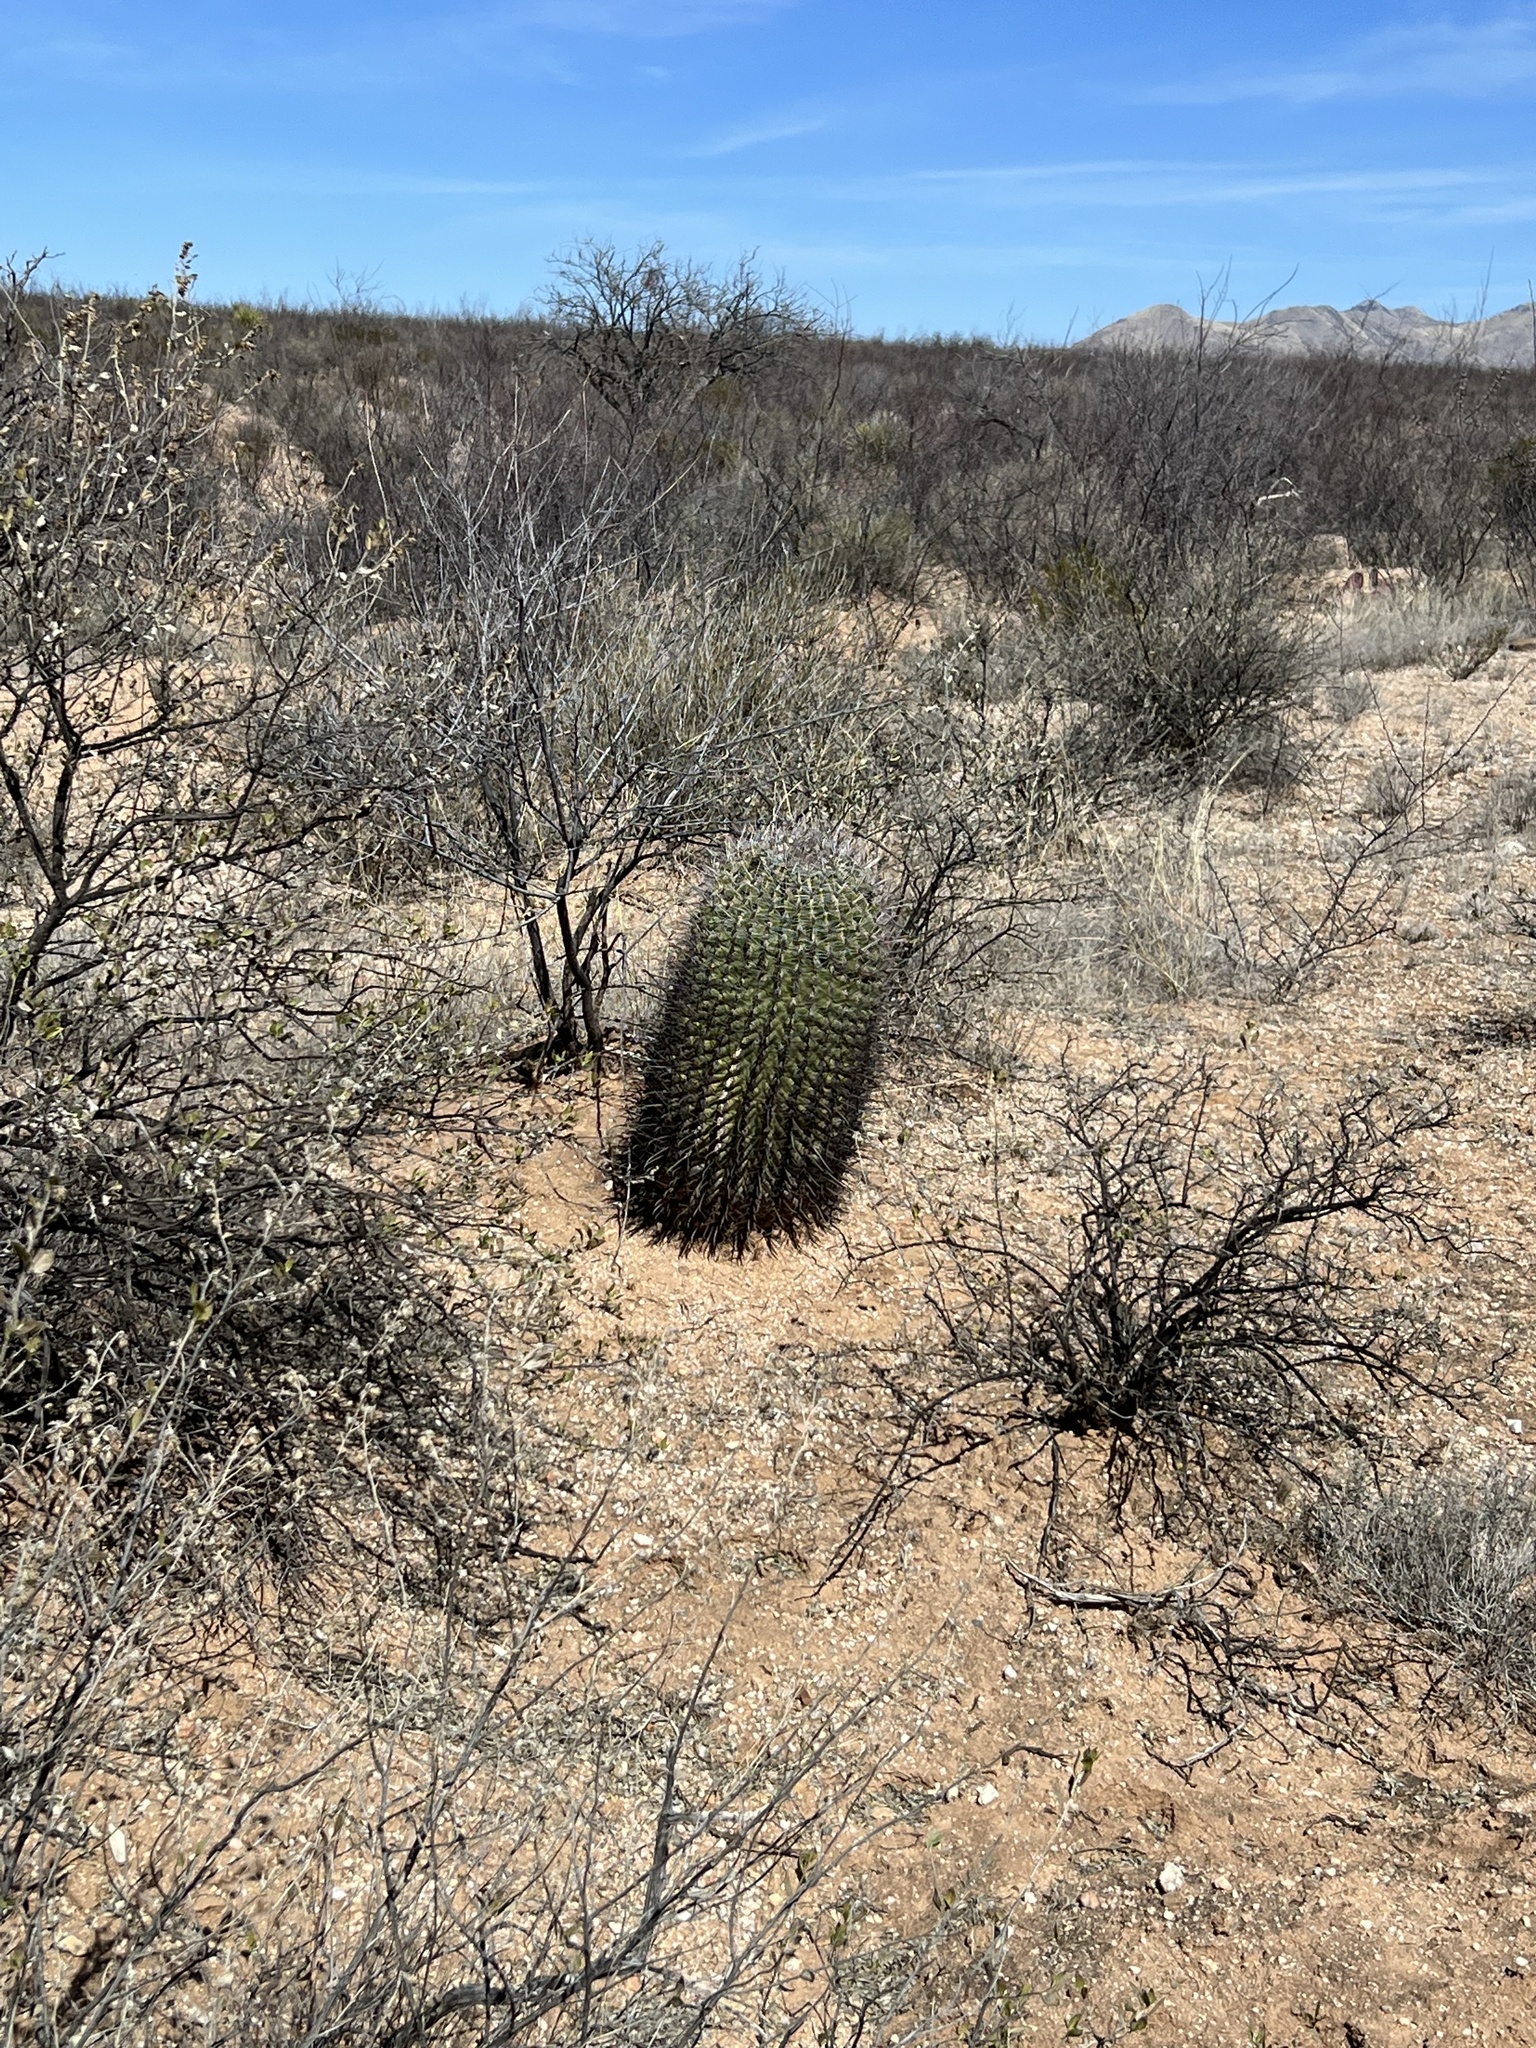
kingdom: Plantae
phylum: Tracheophyta
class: Magnoliopsida
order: Caryophyllales
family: Cactaceae
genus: Ferocactus
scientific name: Ferocactus wislizeni
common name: Candy barrel cactus
